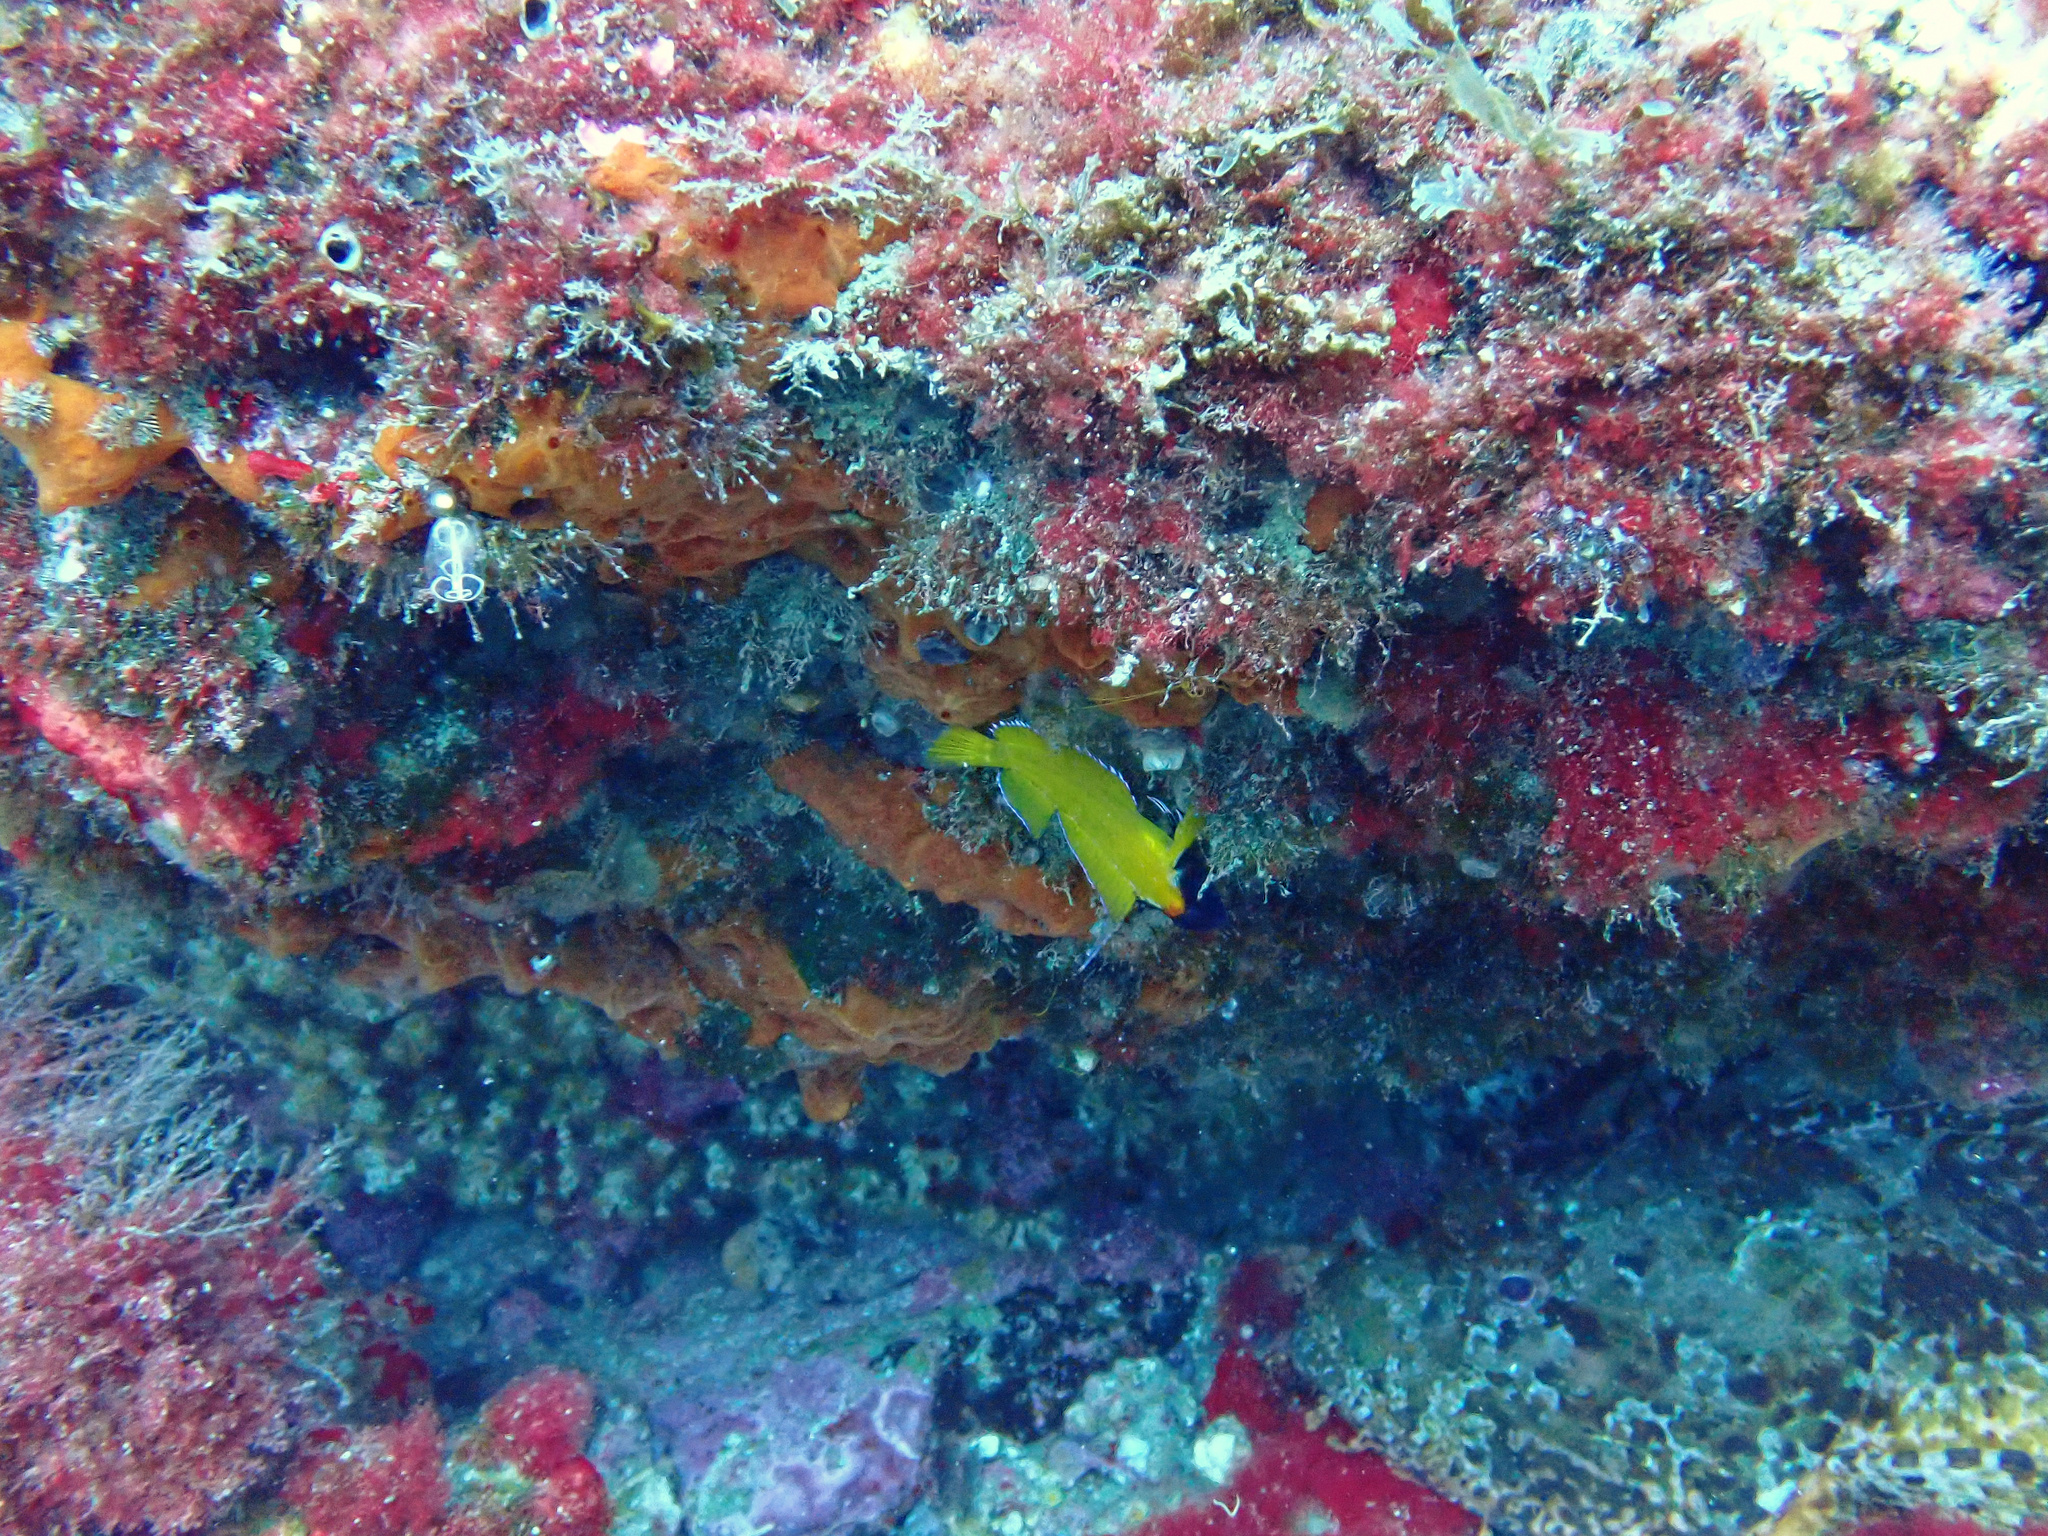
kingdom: Animalia
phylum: Chordata
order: Perciformes
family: Tripterygiidae
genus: Tripterygion
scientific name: Tripterygion delaisi
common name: Black-face blenny
